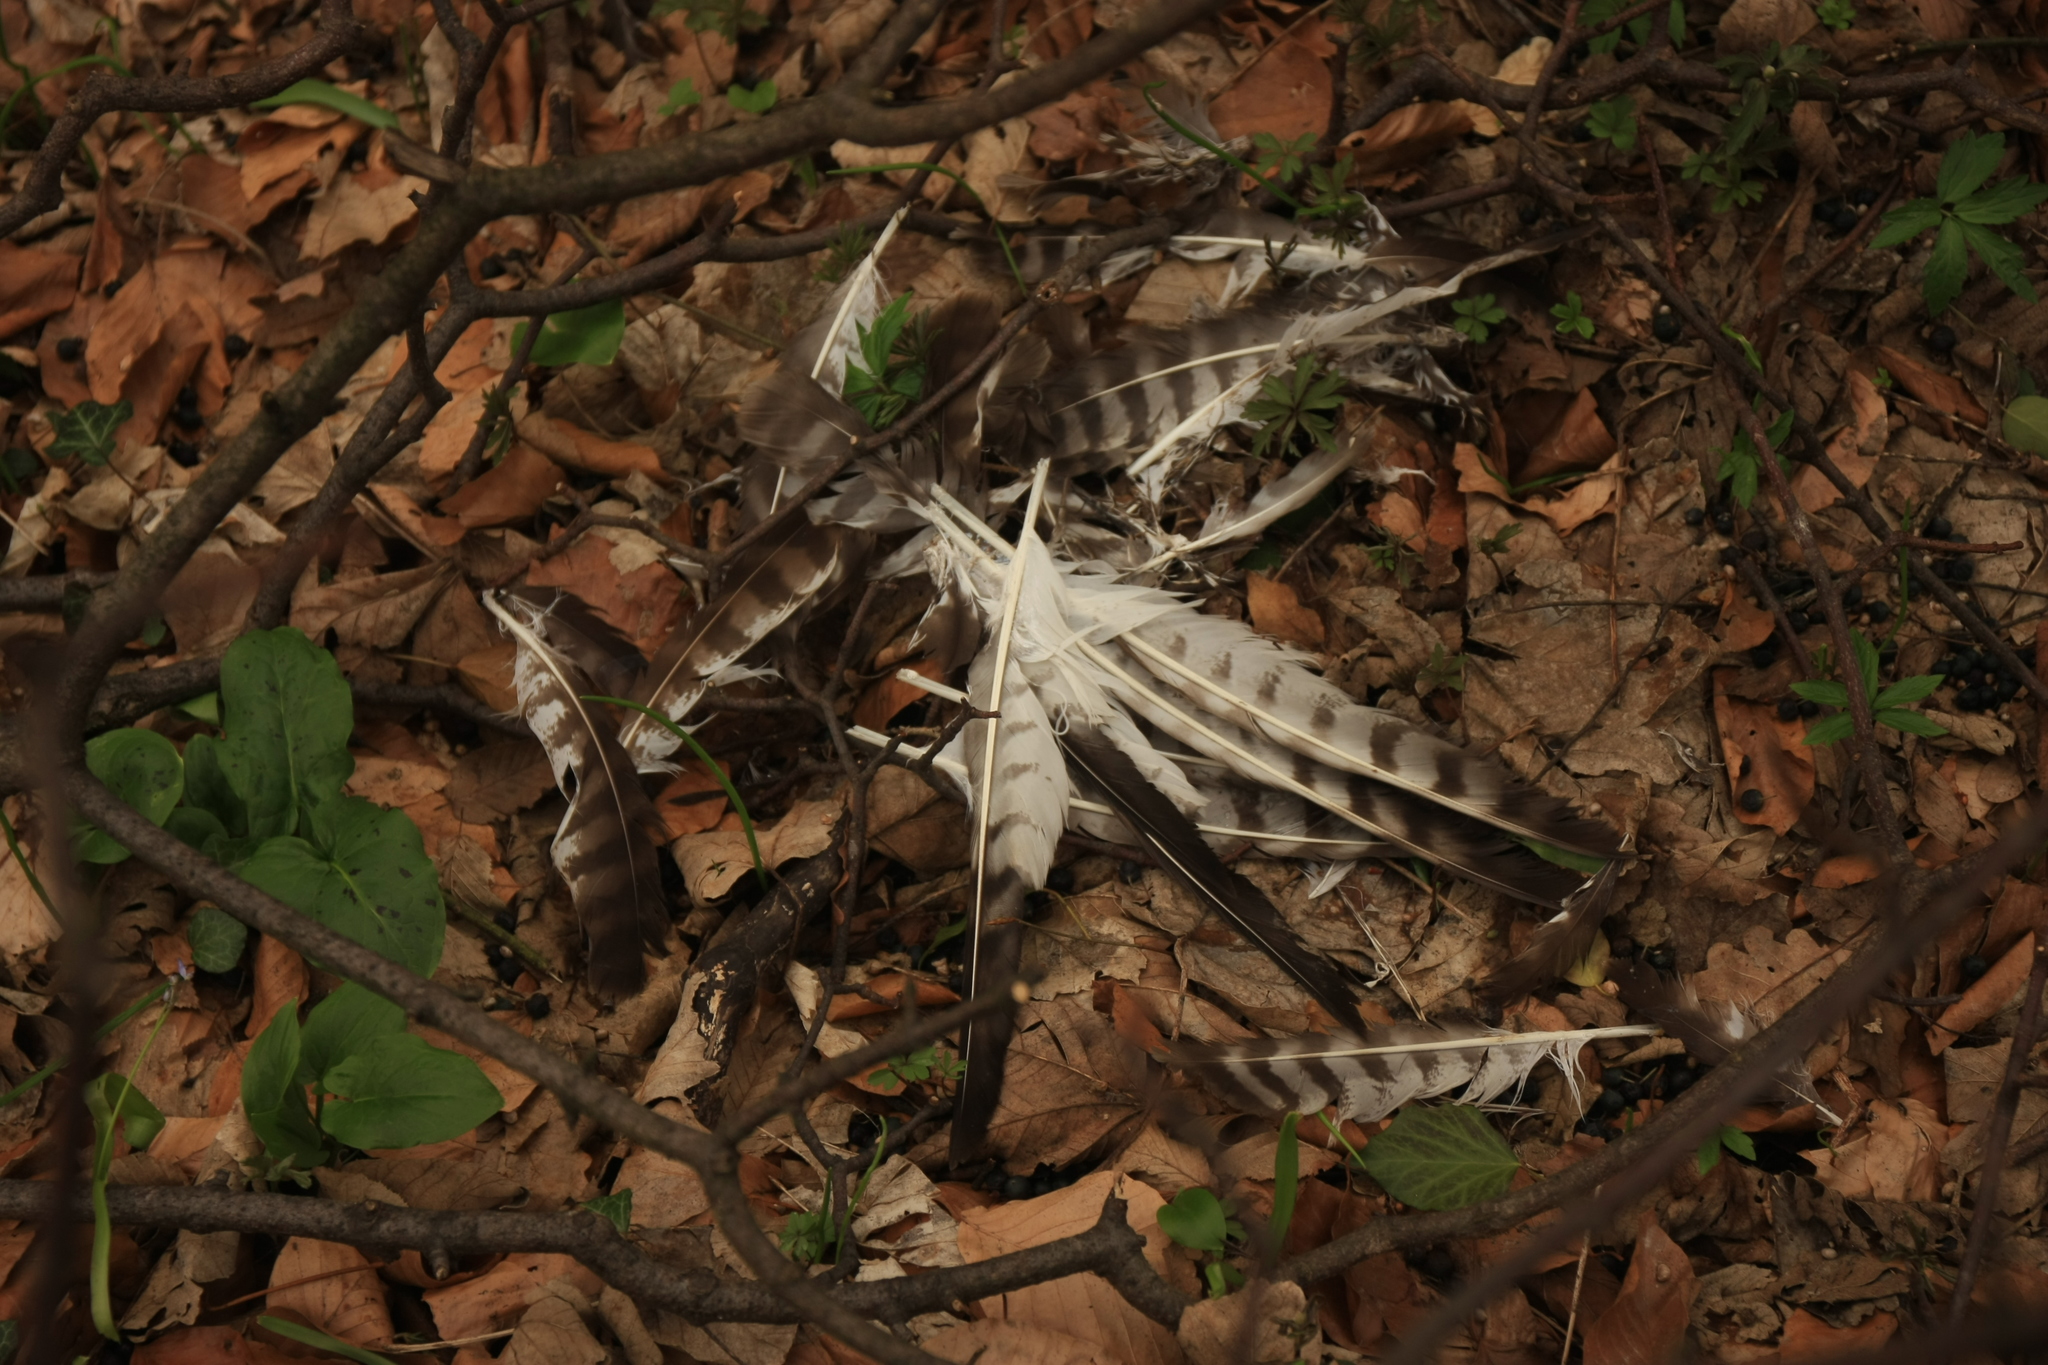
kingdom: Animalia
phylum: Chordata
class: Aves
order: Accipitriformes
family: Accipitridae
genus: Buteo
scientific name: Buteo buteo
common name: Common buzzard
